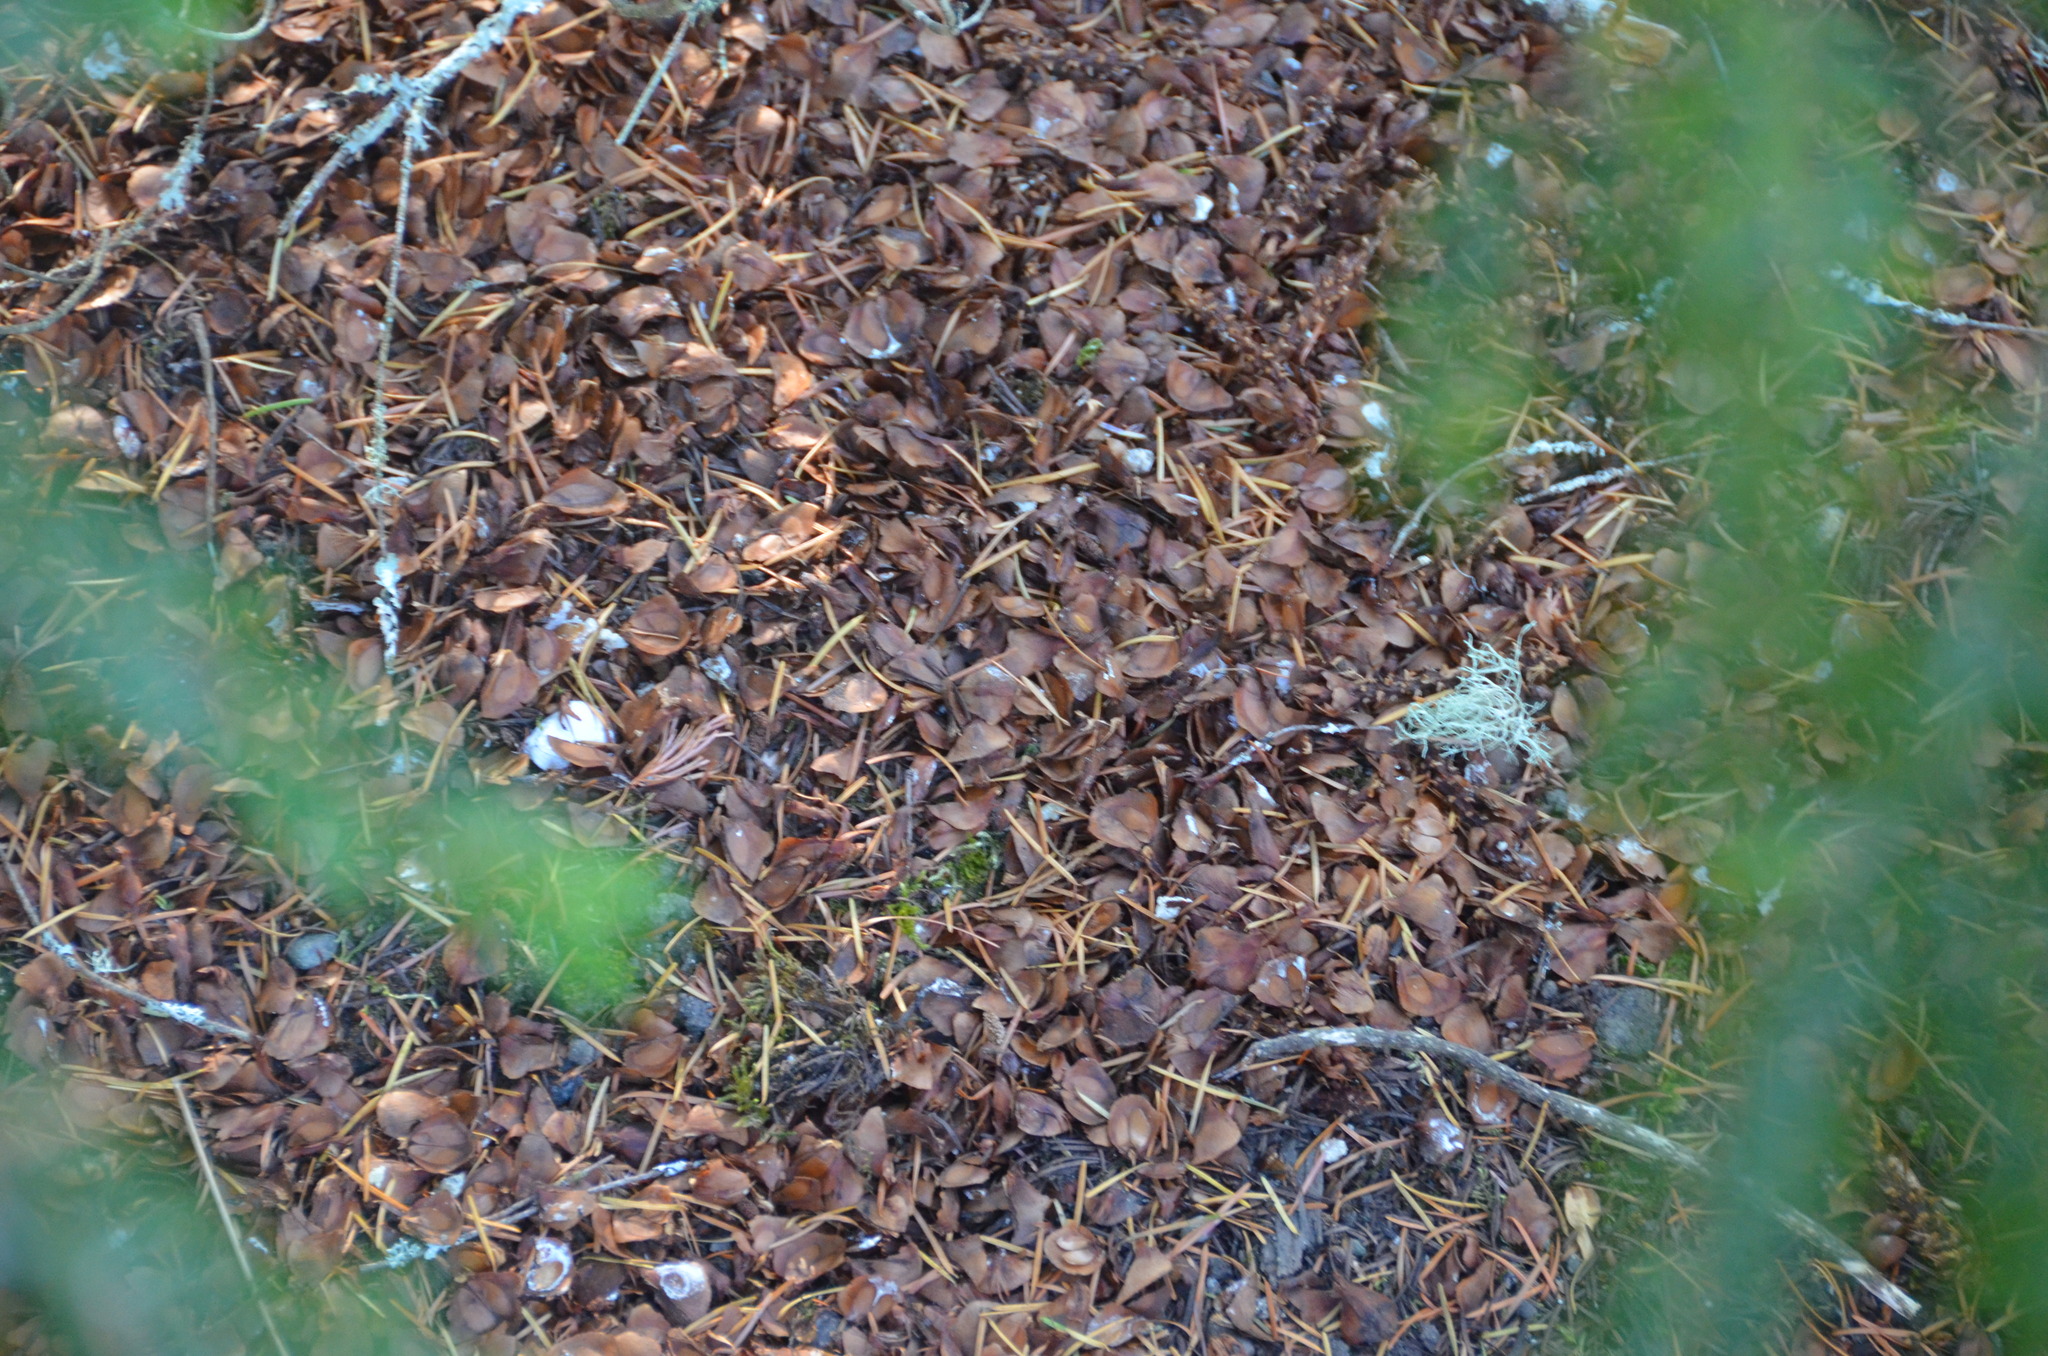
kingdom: Animalia
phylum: Chordata
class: Mammalia
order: Rodentia
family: Sciuridae
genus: Tamiasciurus
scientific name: Tamiasciurus hudsonicus
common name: Red squirrel
